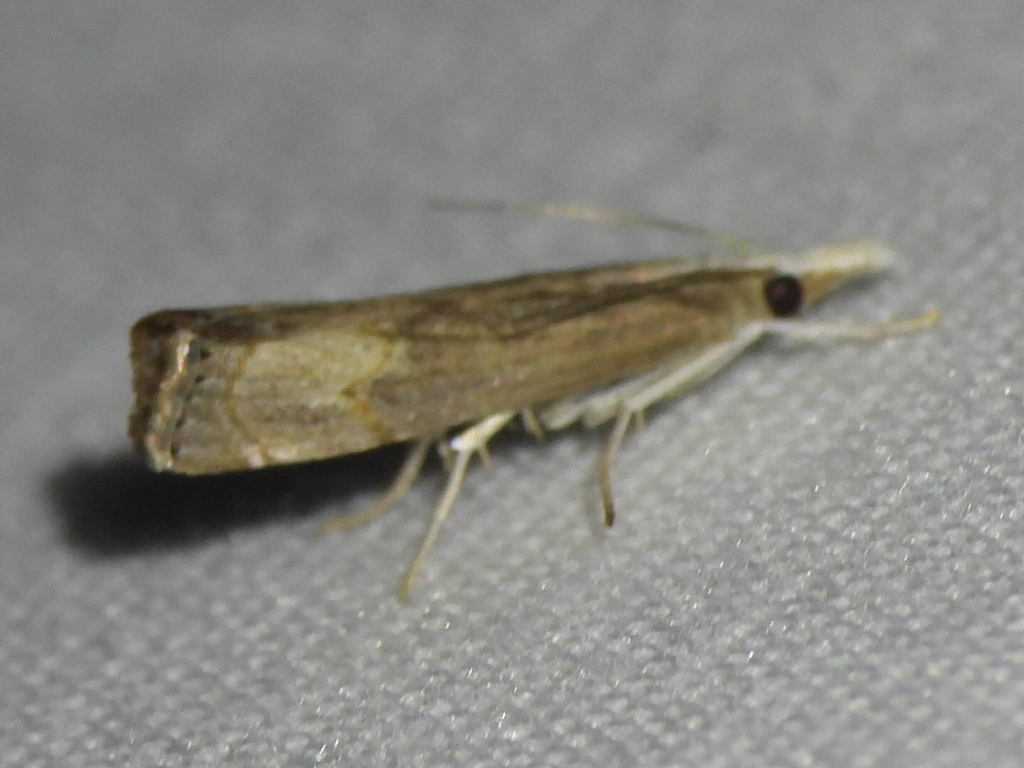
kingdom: Animalia
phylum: Arthropoda
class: Insecta
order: Lepidoptera
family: Crambidae
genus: Parapediasia
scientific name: Parapediasia teterellus
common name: Bluegrass webworm moth
